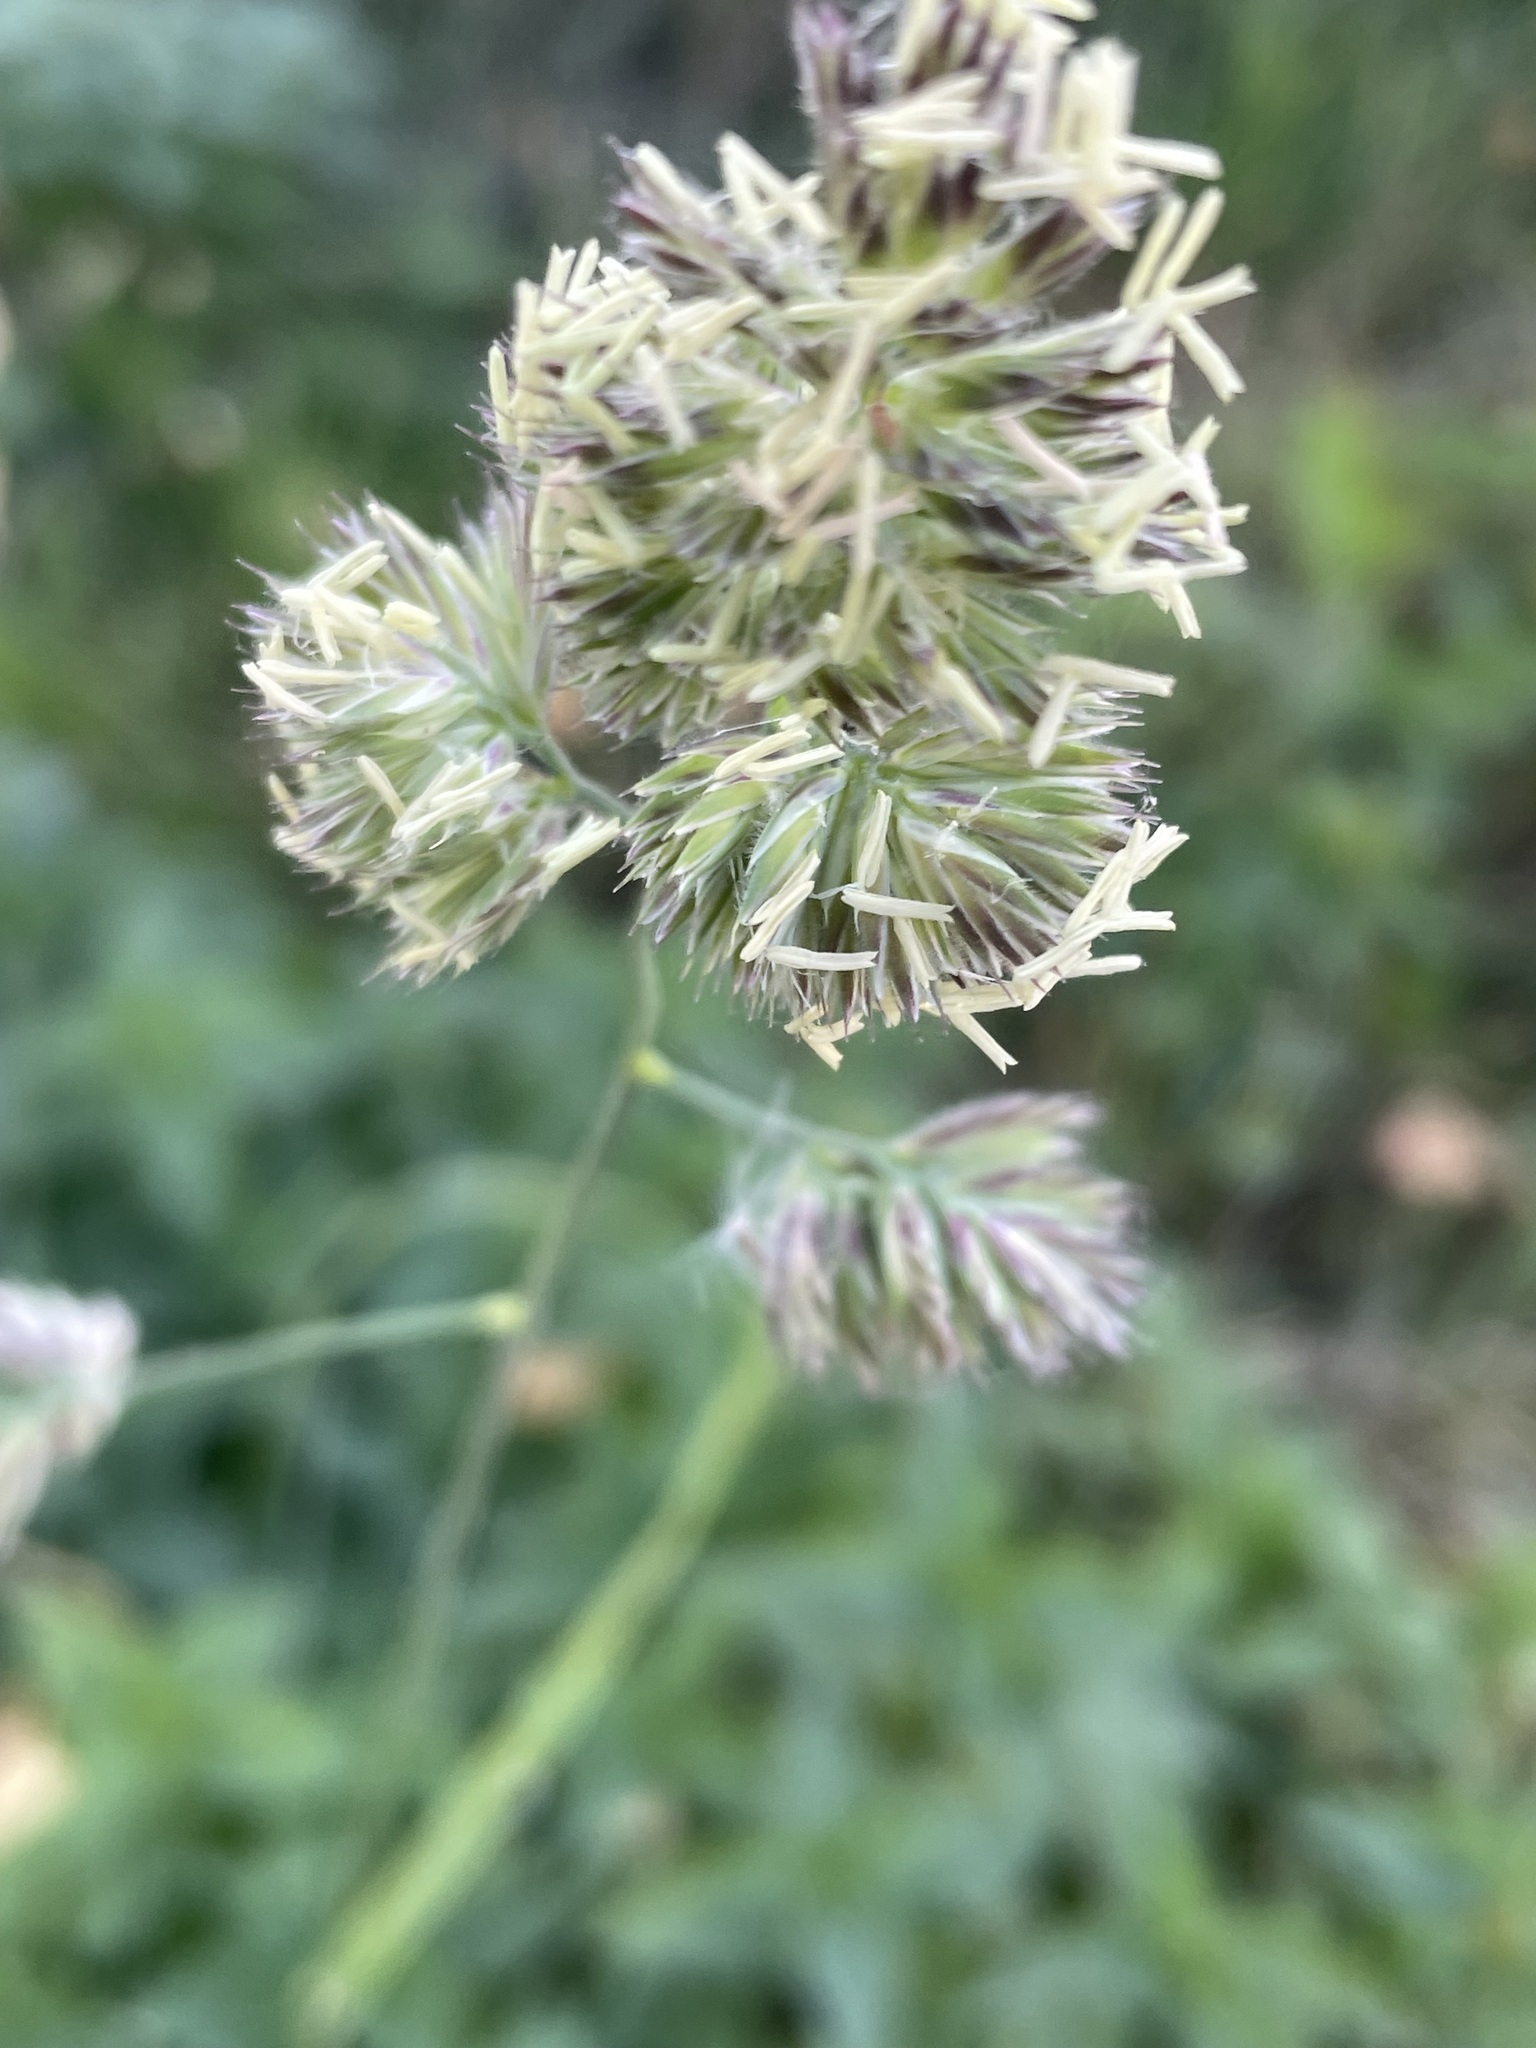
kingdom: Plantae
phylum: Tracheophyta
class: Liliopsida
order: Poales
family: Poaceae
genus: Dactylis
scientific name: Dactylis glomerata
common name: Orchardgrass
